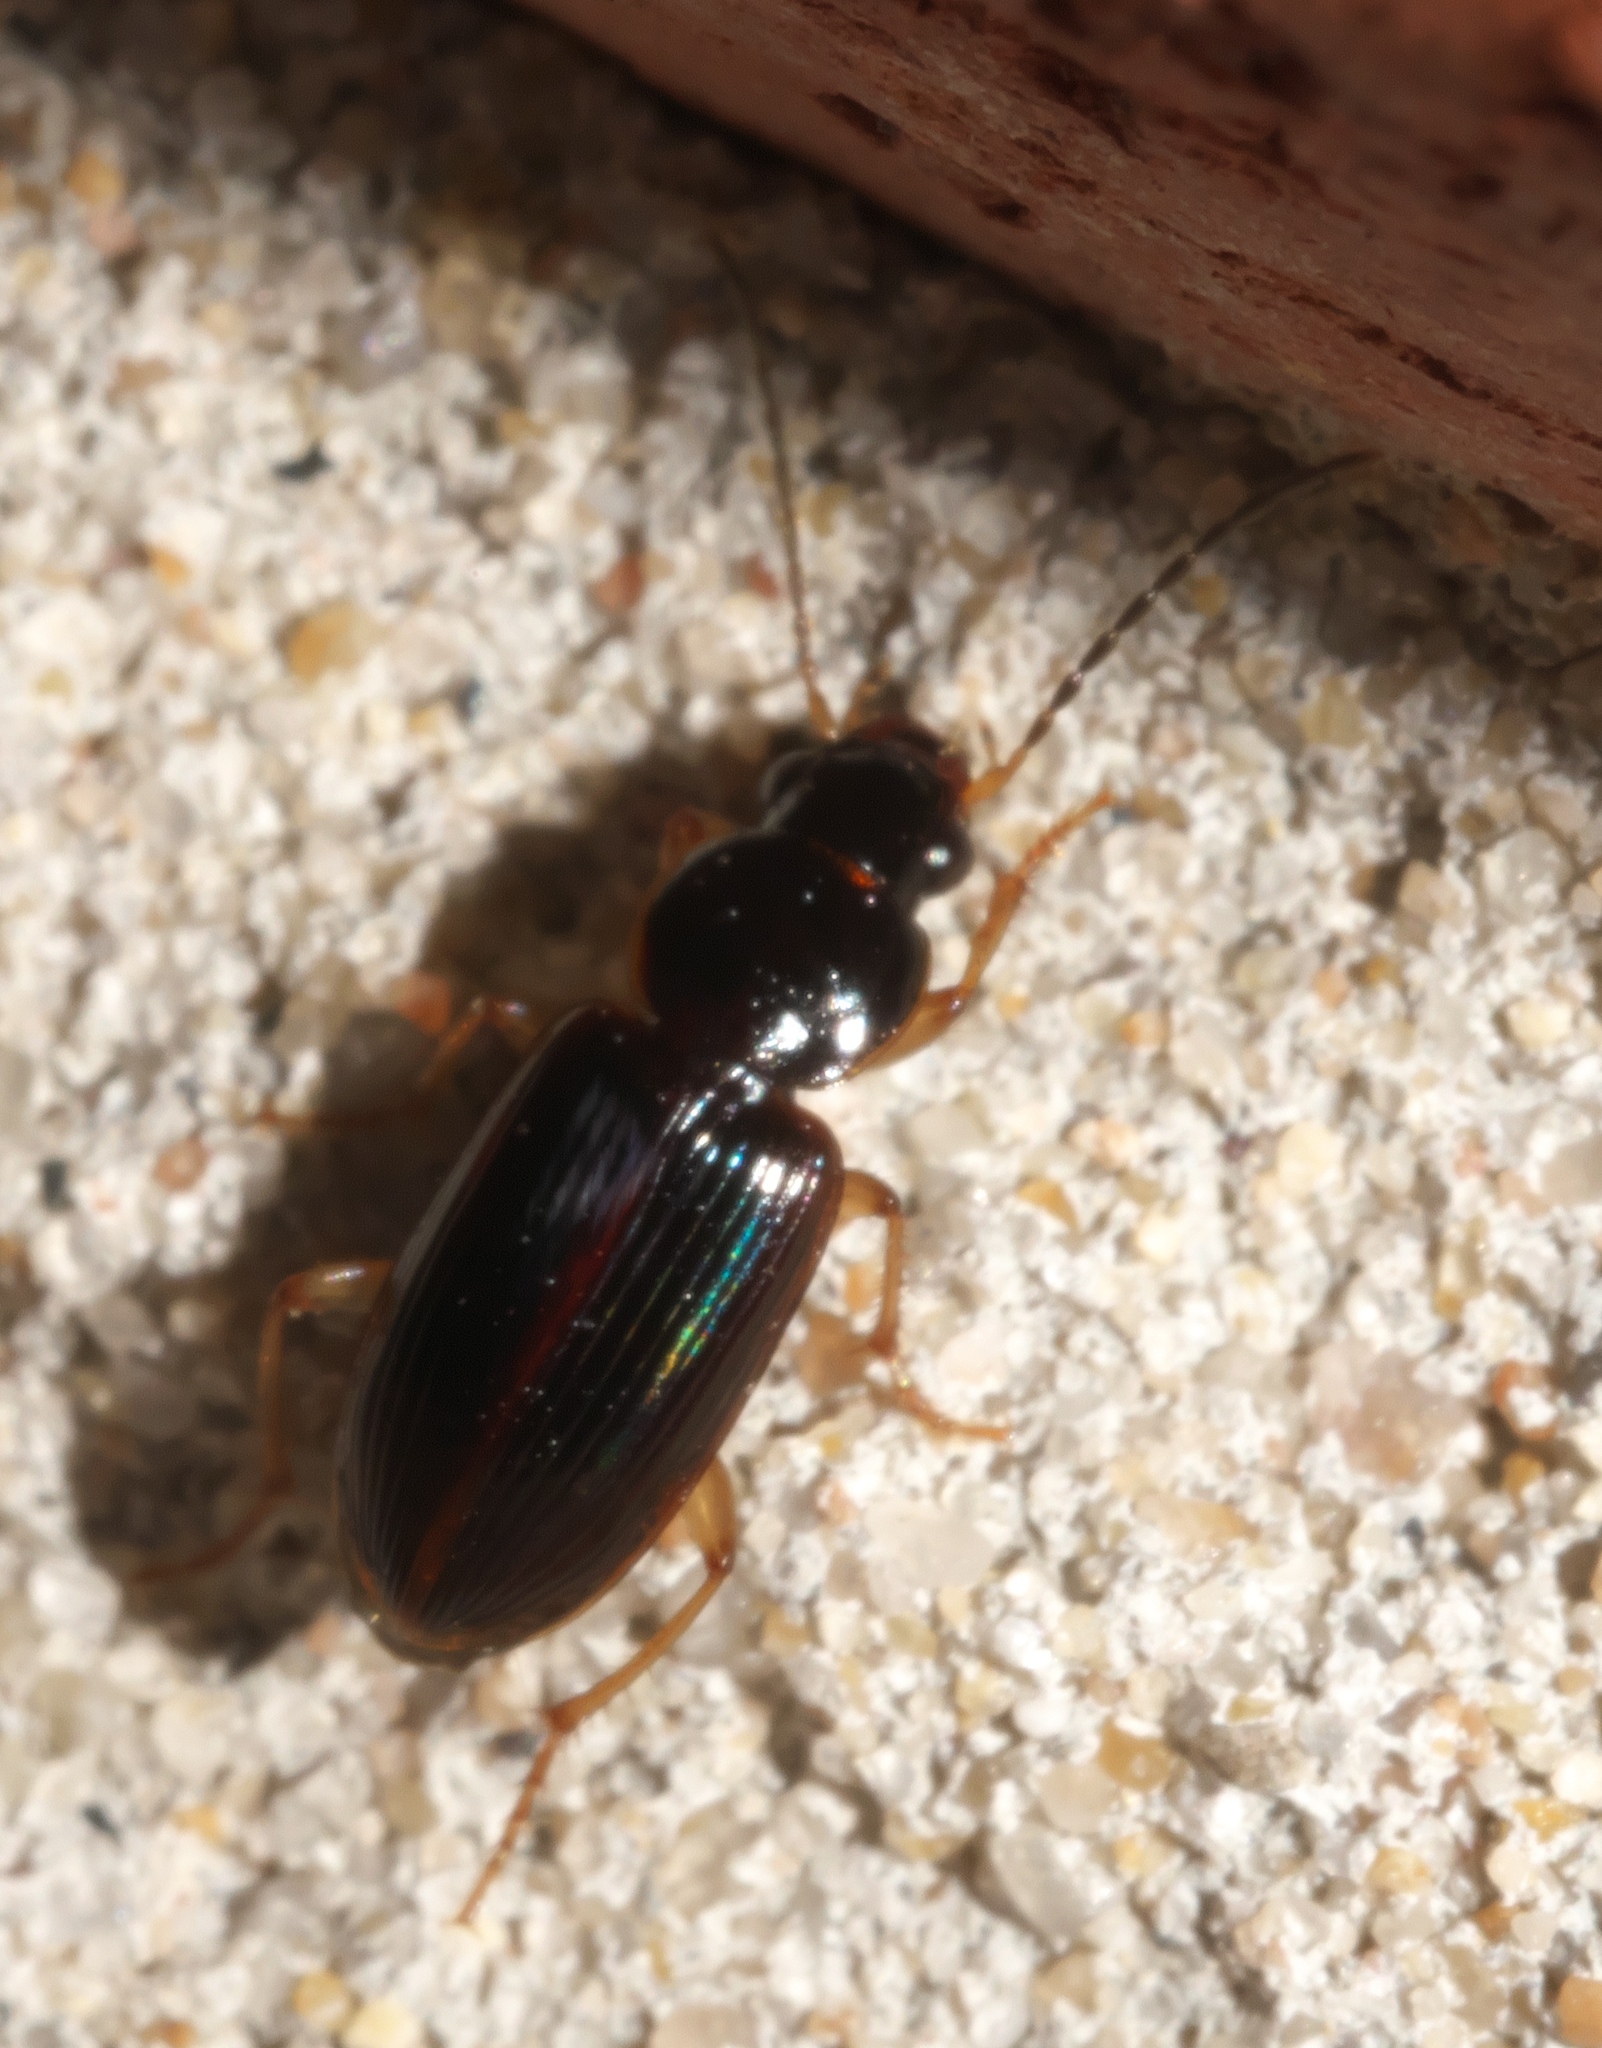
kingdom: Animalia
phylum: Arthropoda
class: Insecta
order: Coleoptera
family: Carabidae
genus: Stenolophus
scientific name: Stenolophus ochropezus
